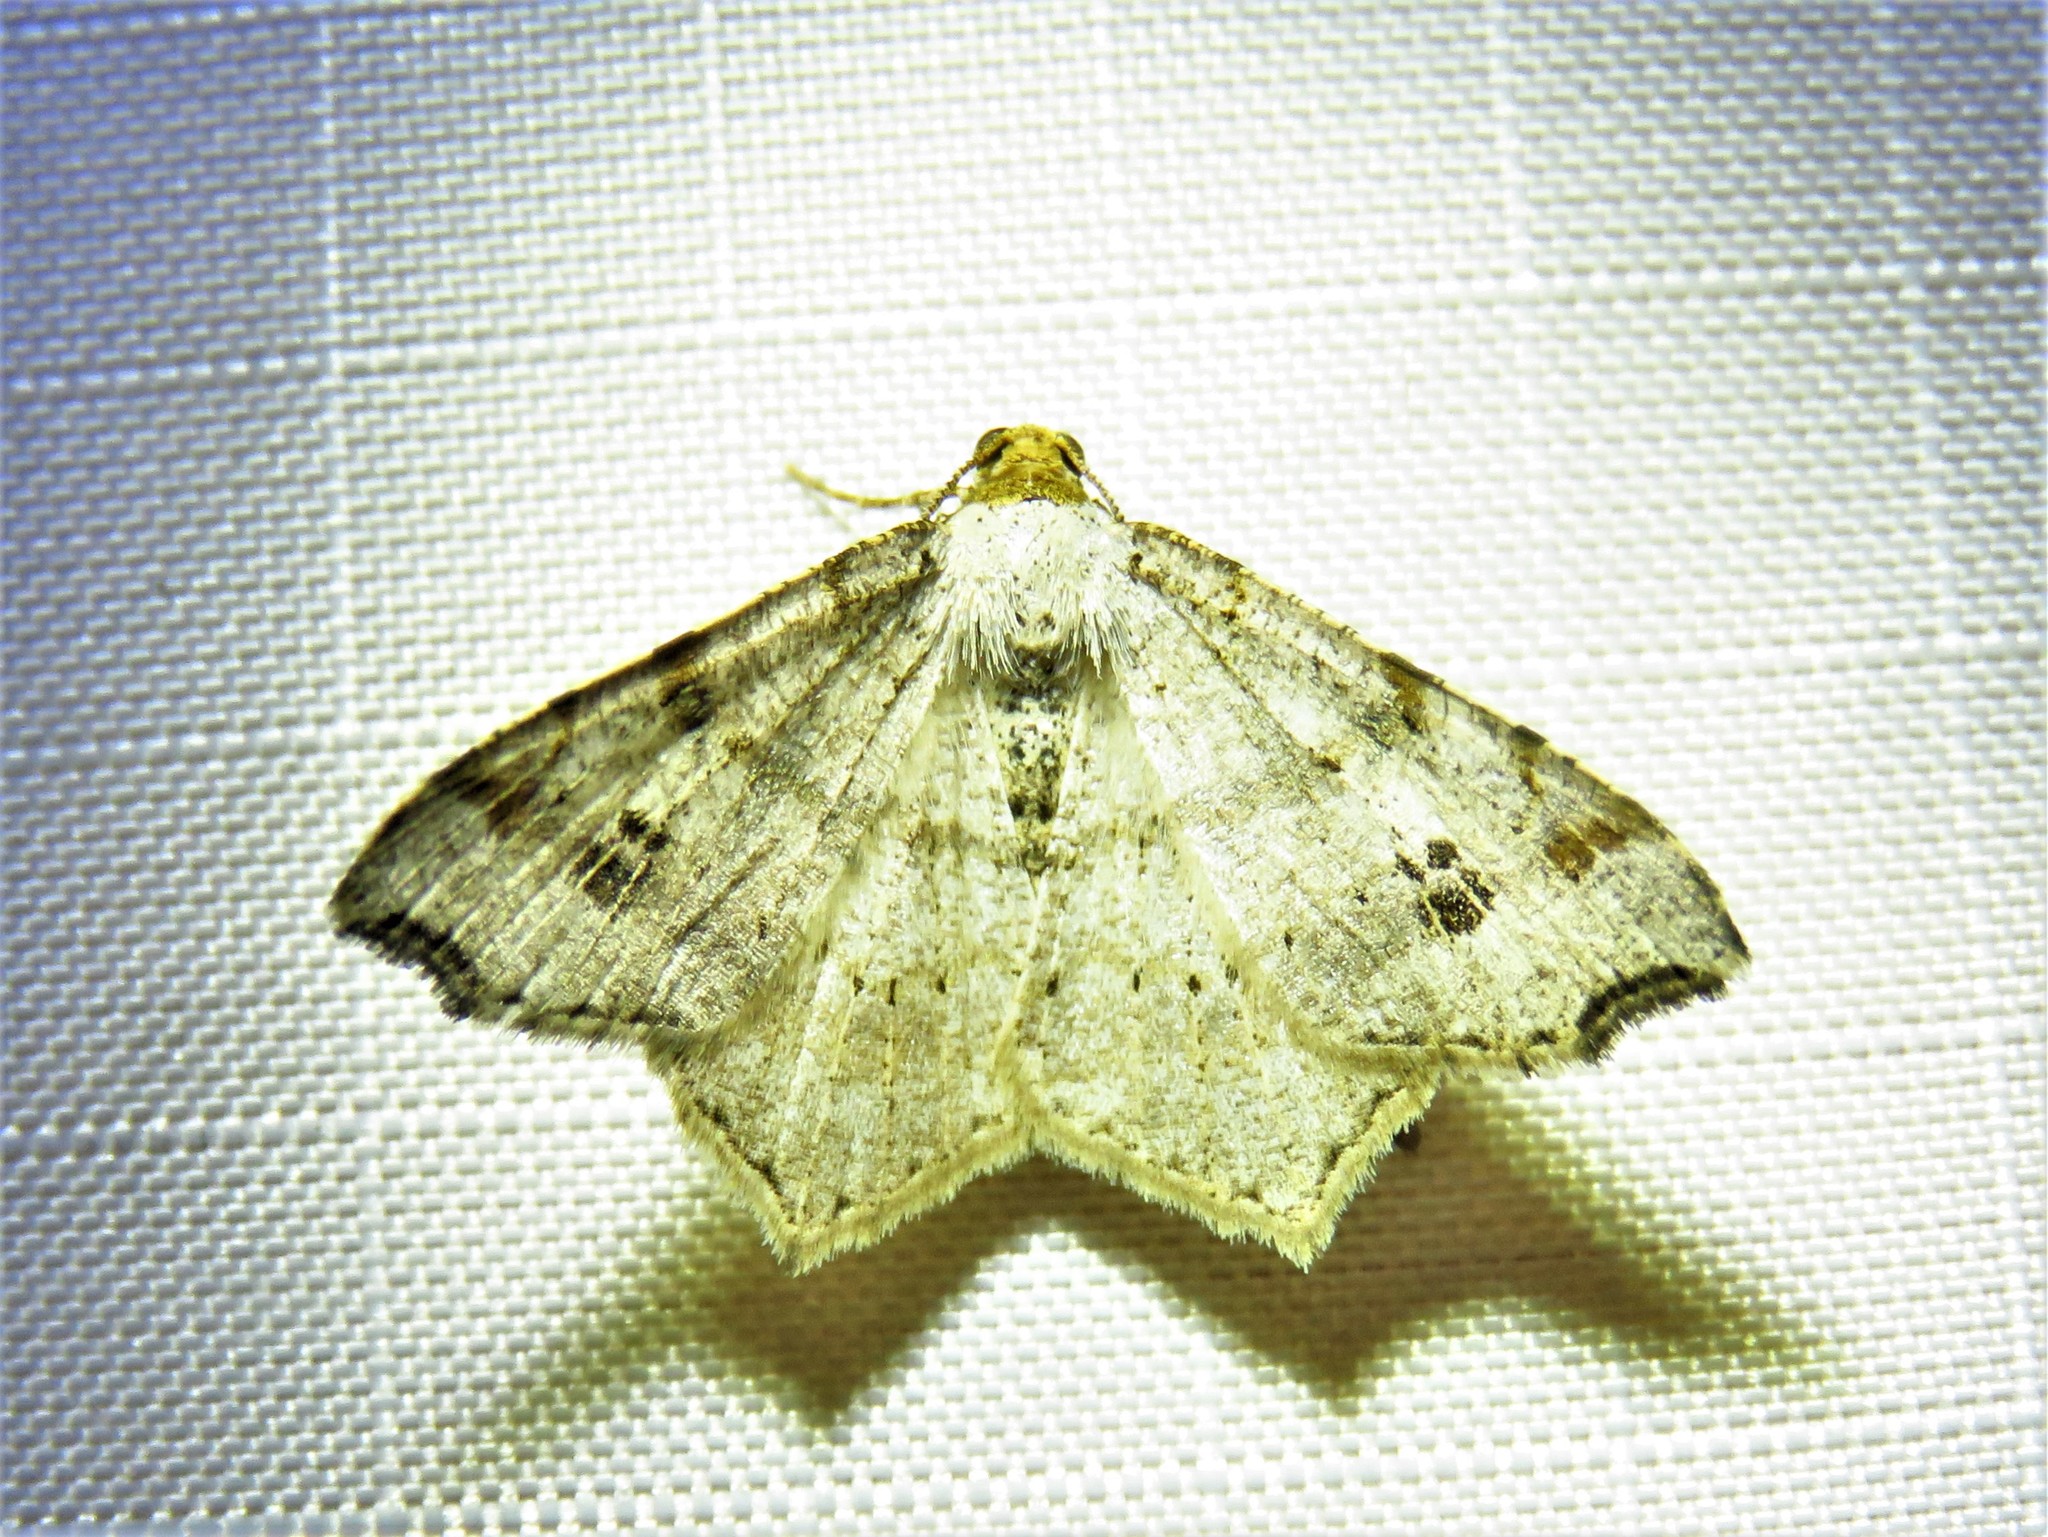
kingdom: Animalia
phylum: Arthropoda
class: Insecta
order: Lepidoptera
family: Geometridae
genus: Macaria
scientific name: Macaria aemulataria
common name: Common angle
